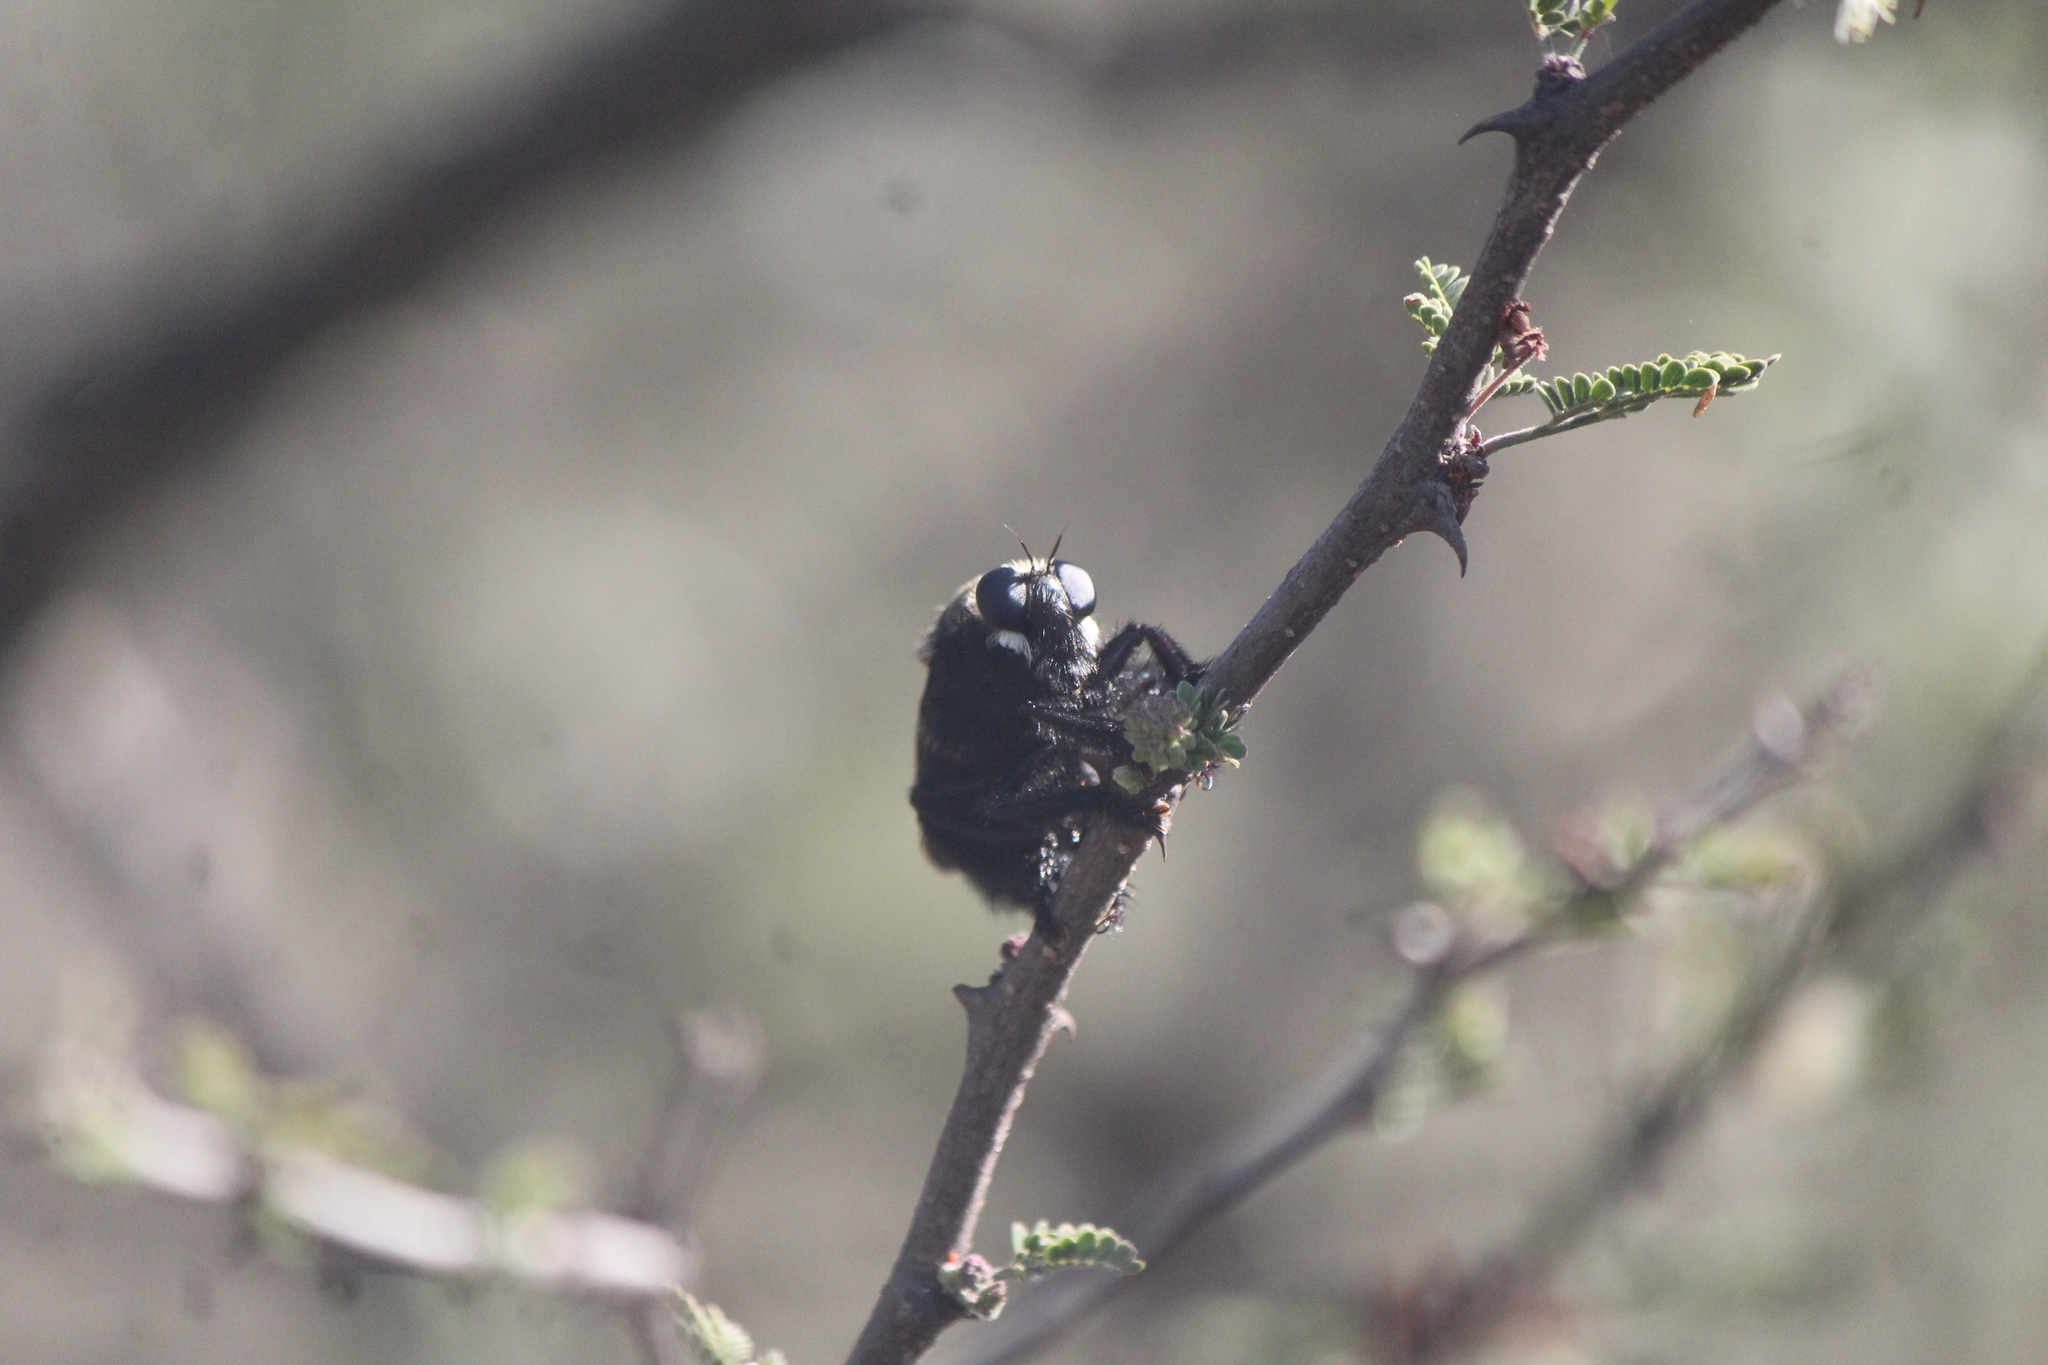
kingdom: Animalia
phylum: Arthropoda
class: Insecta
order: Diptera
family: Asilidae
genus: Mallophora
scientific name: Mallophora leschenaultii
